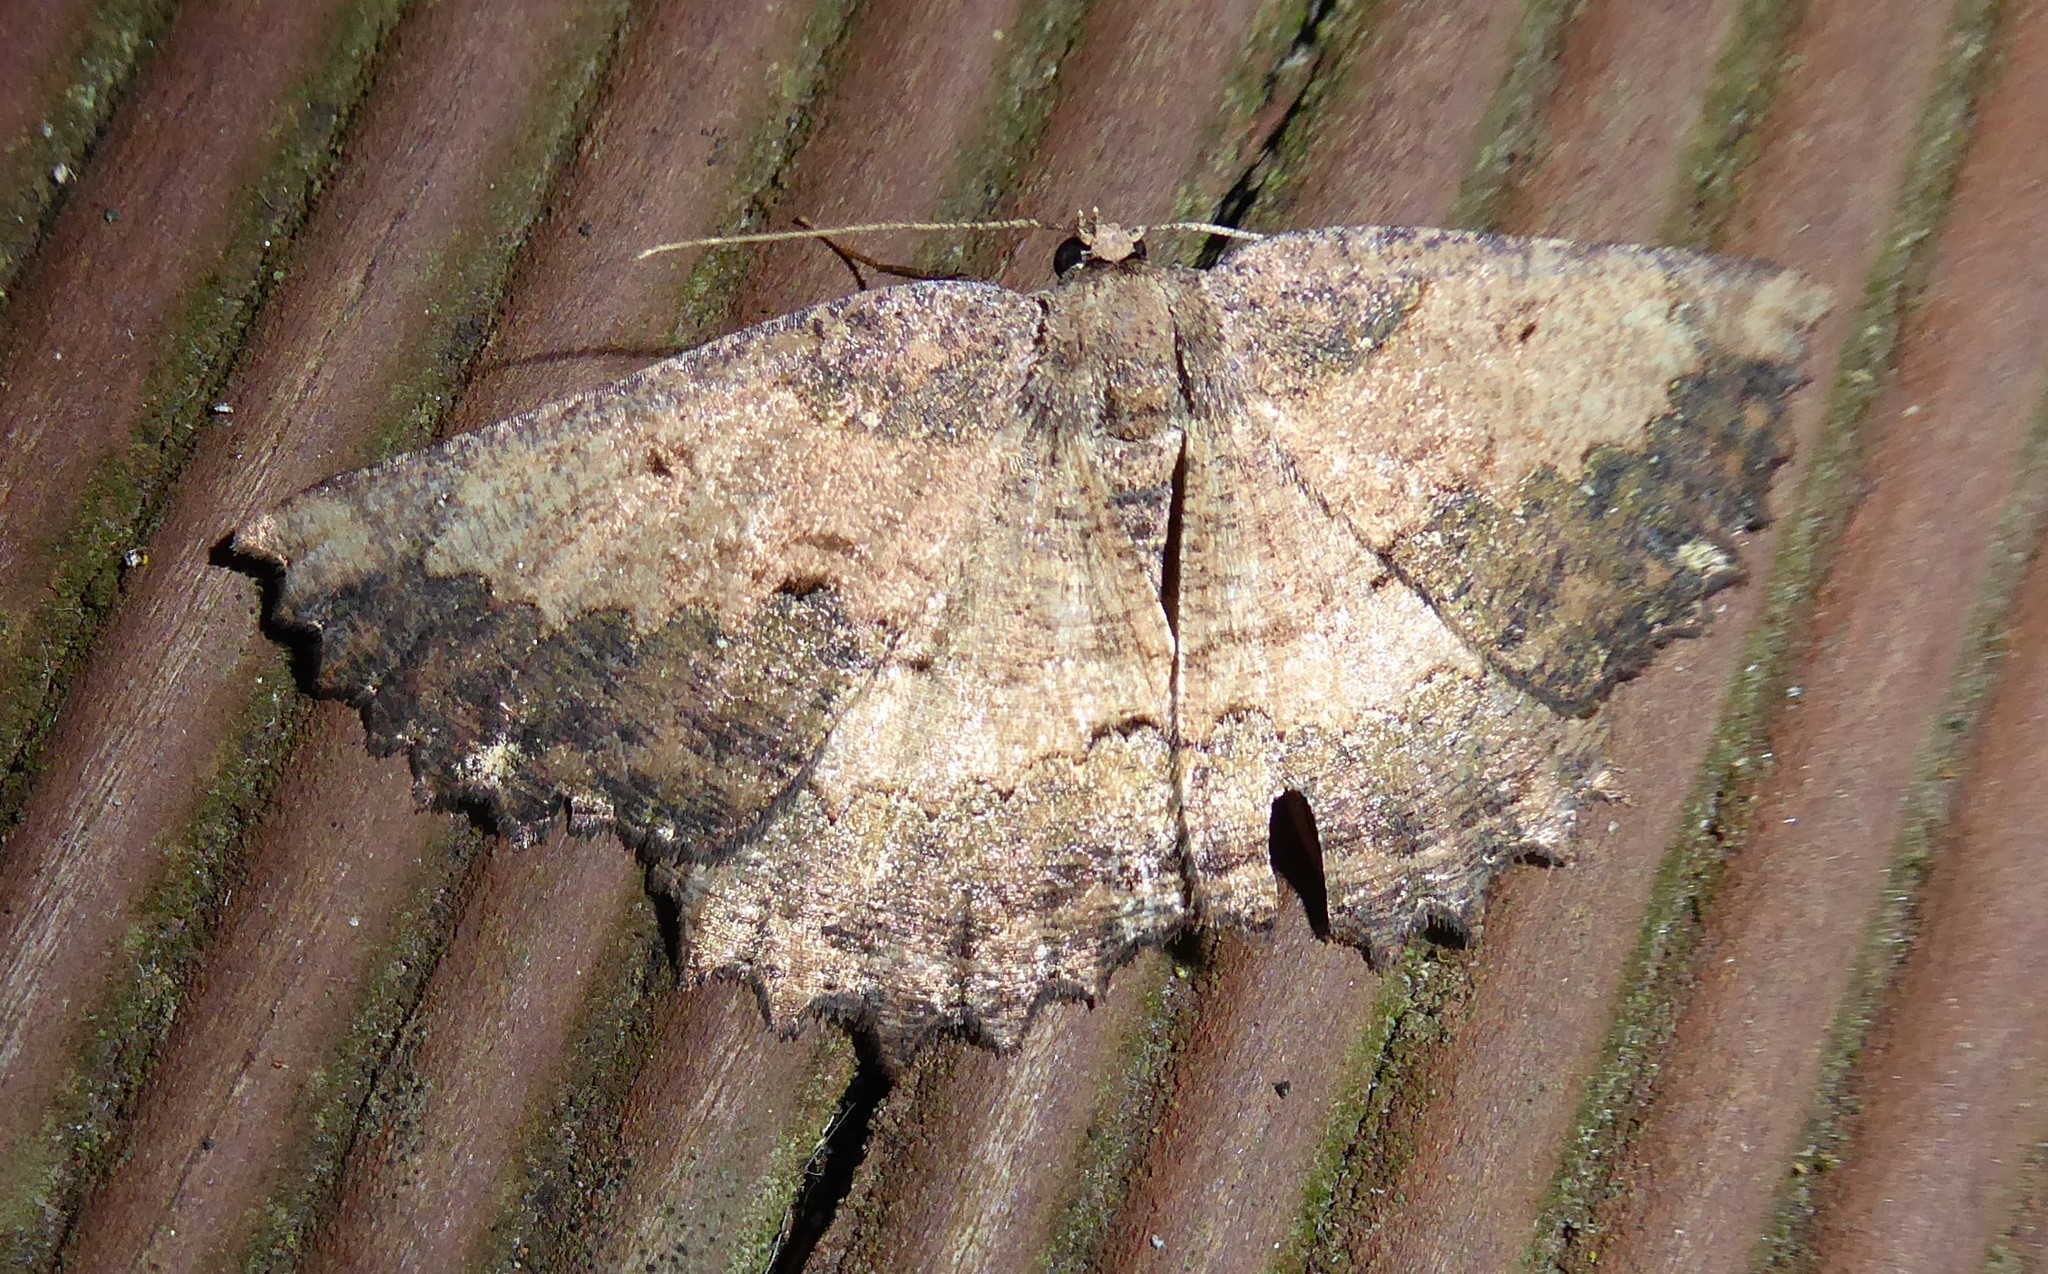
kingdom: Animalia
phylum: Arthropoda
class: Insecta
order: Lepidoptera
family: Geometridae
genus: Gellonia
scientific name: Gellonia pannularia
